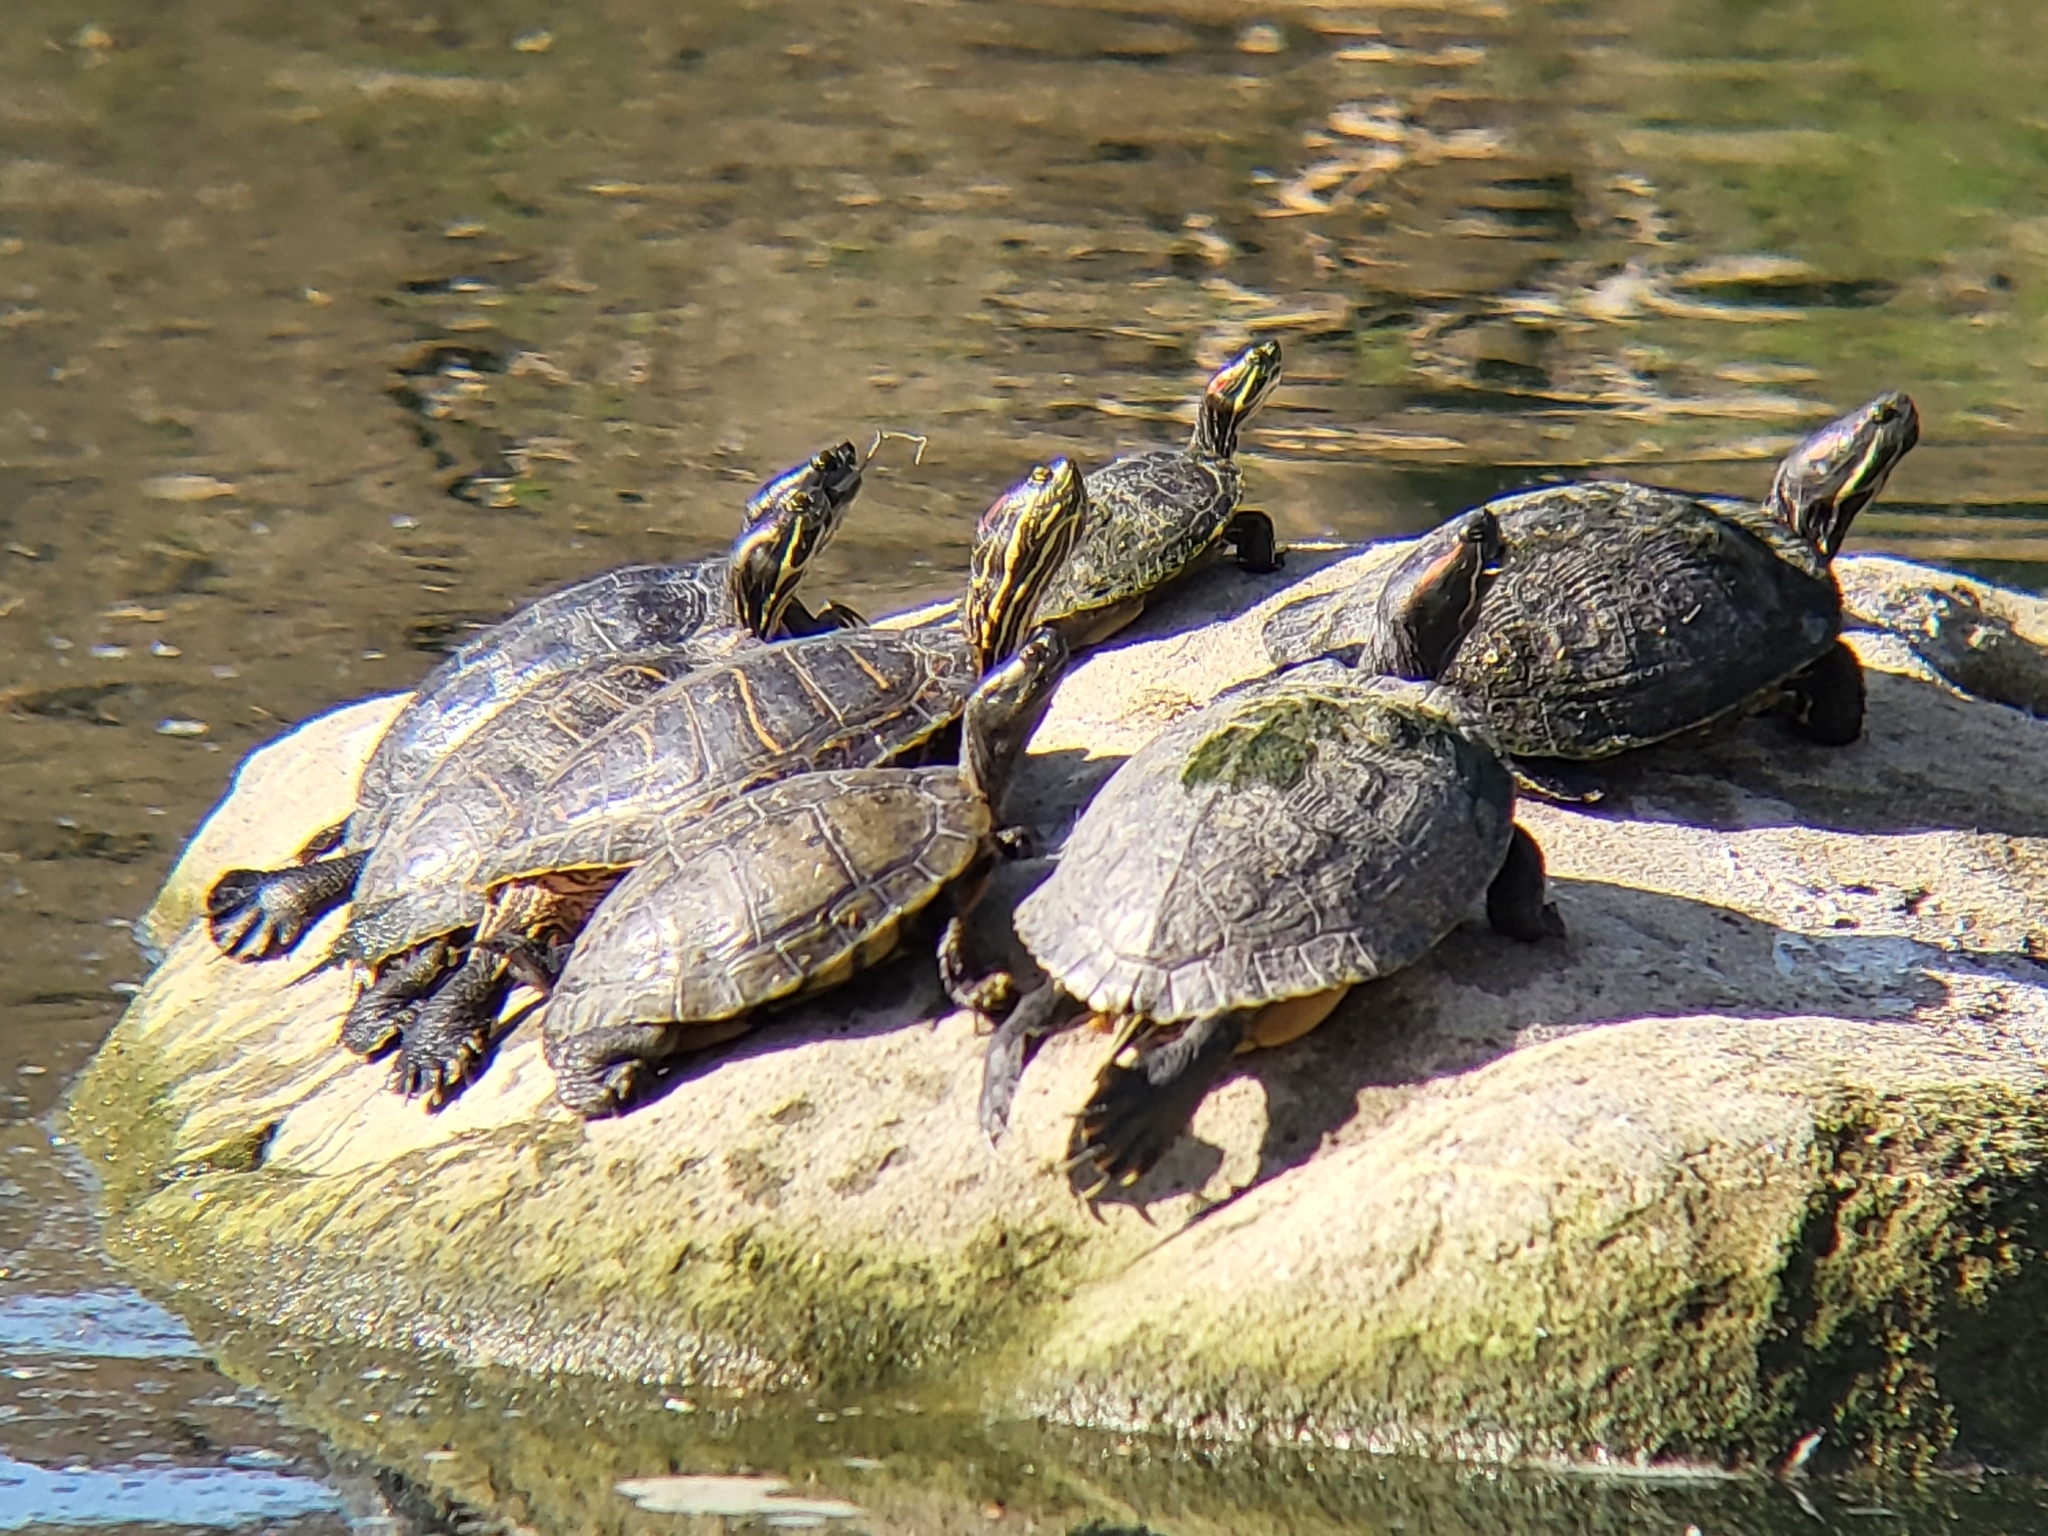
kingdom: Animalia
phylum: Chordata
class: Testudines
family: Emydidae
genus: Trachemys
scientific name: Trachemys scripta
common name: Slider
